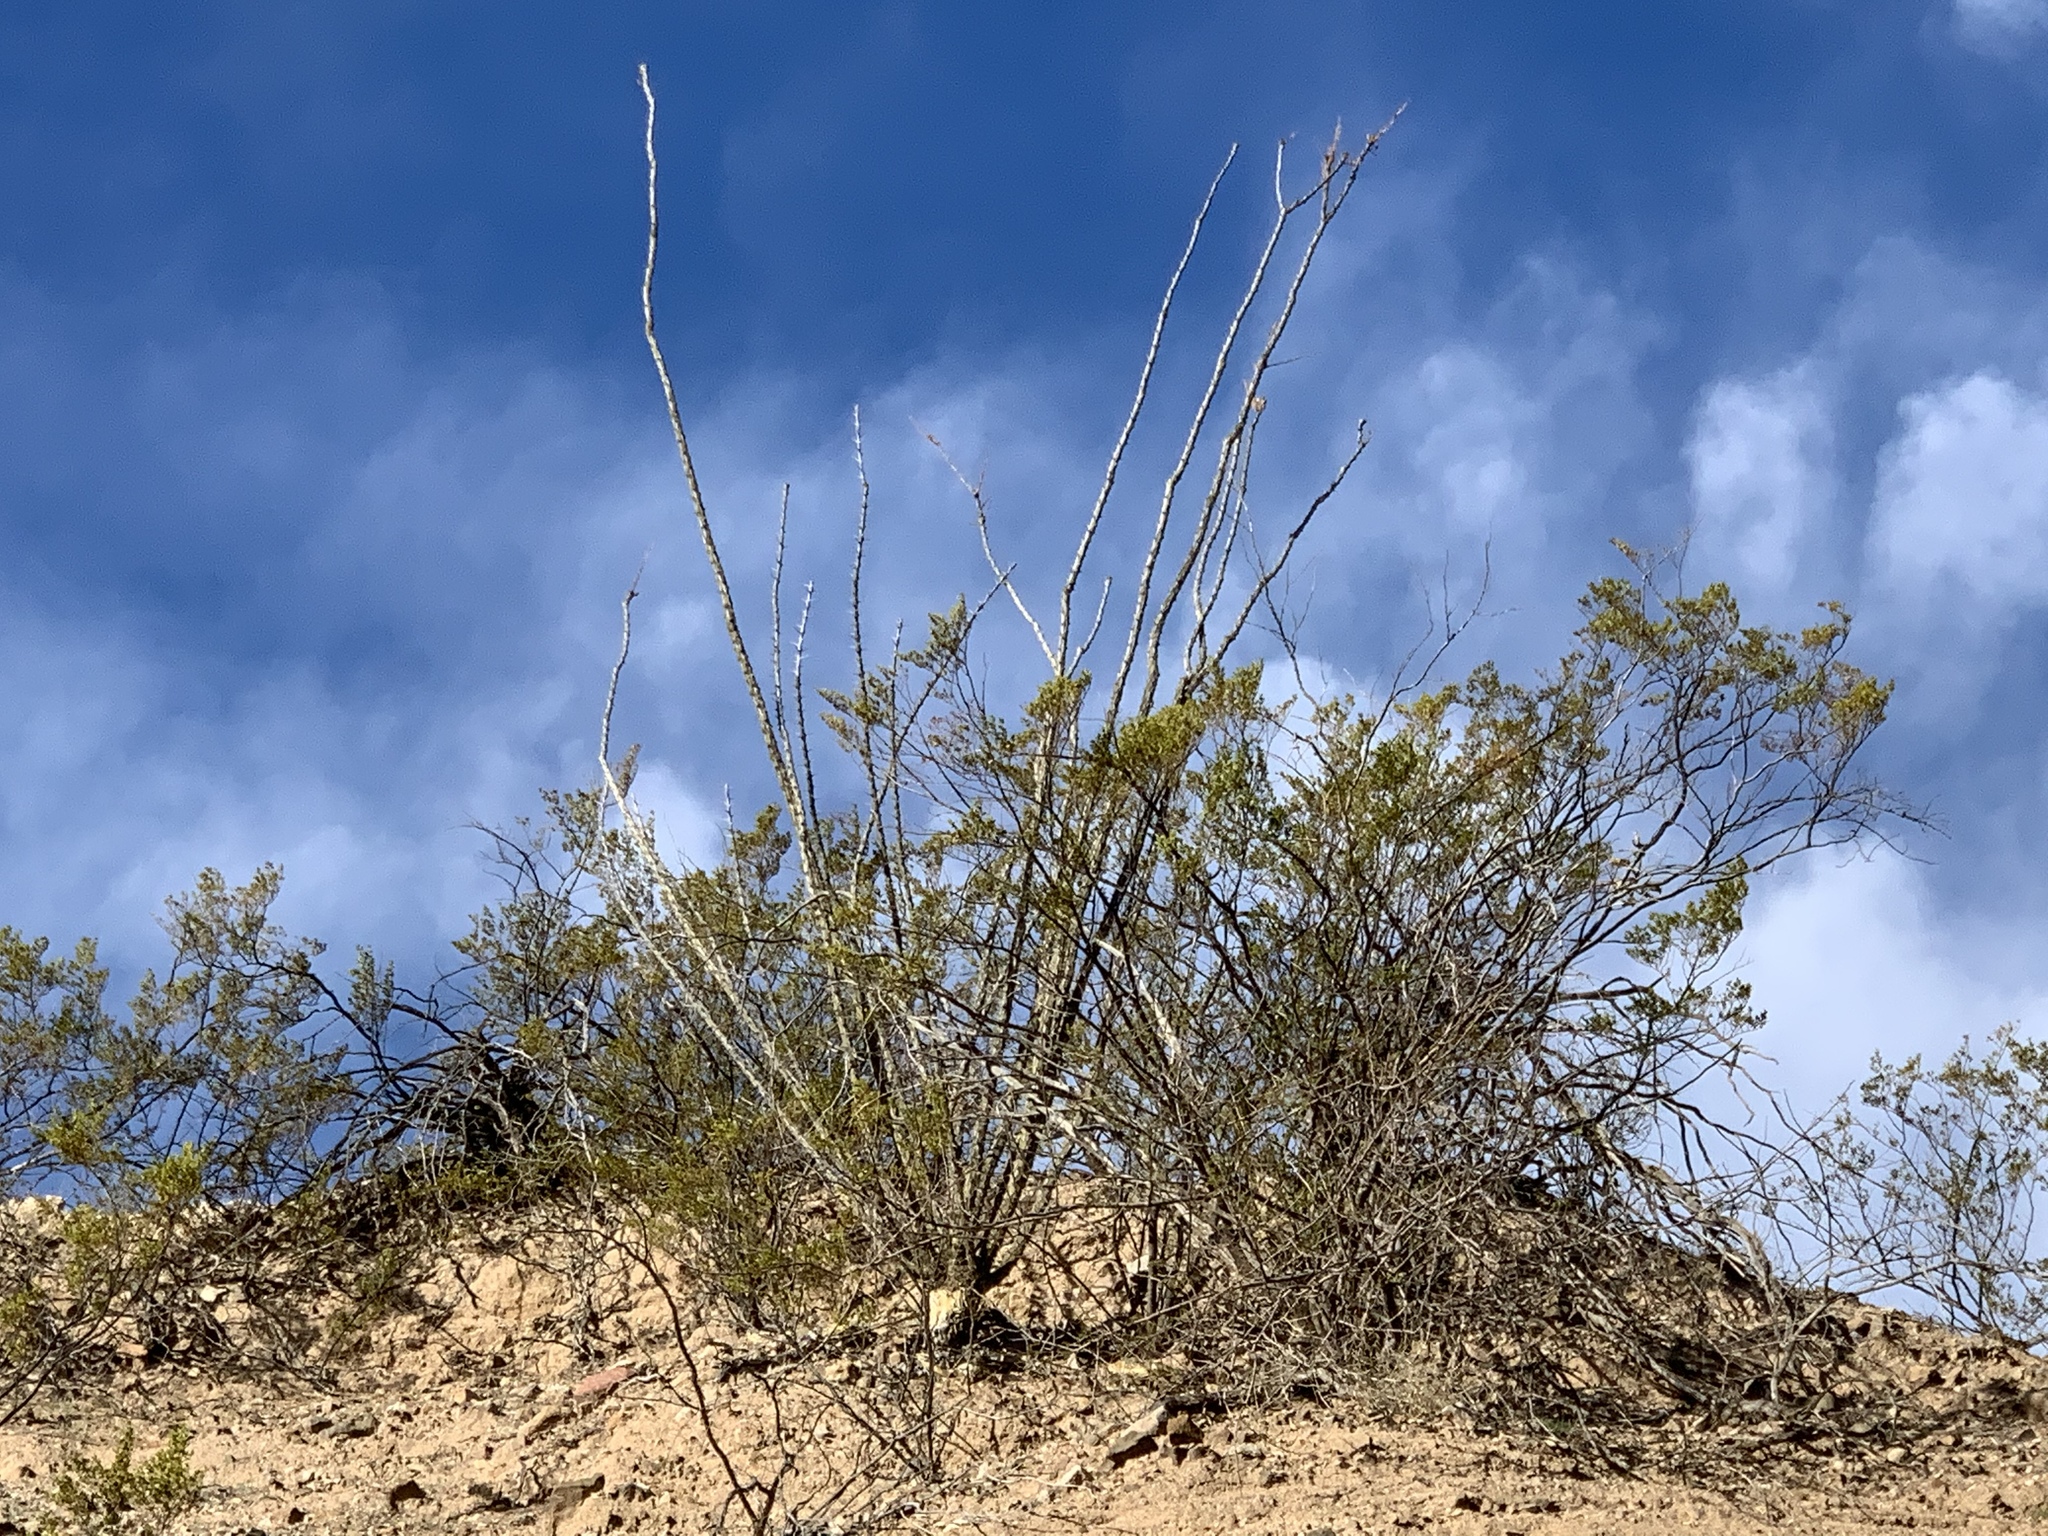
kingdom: Plantae
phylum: Tracheophyta
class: Magnoliopsida
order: Ericales
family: Fouquieriaceae
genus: Fouquieria
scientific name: Fouquieria splendens
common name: Vine-cactus
